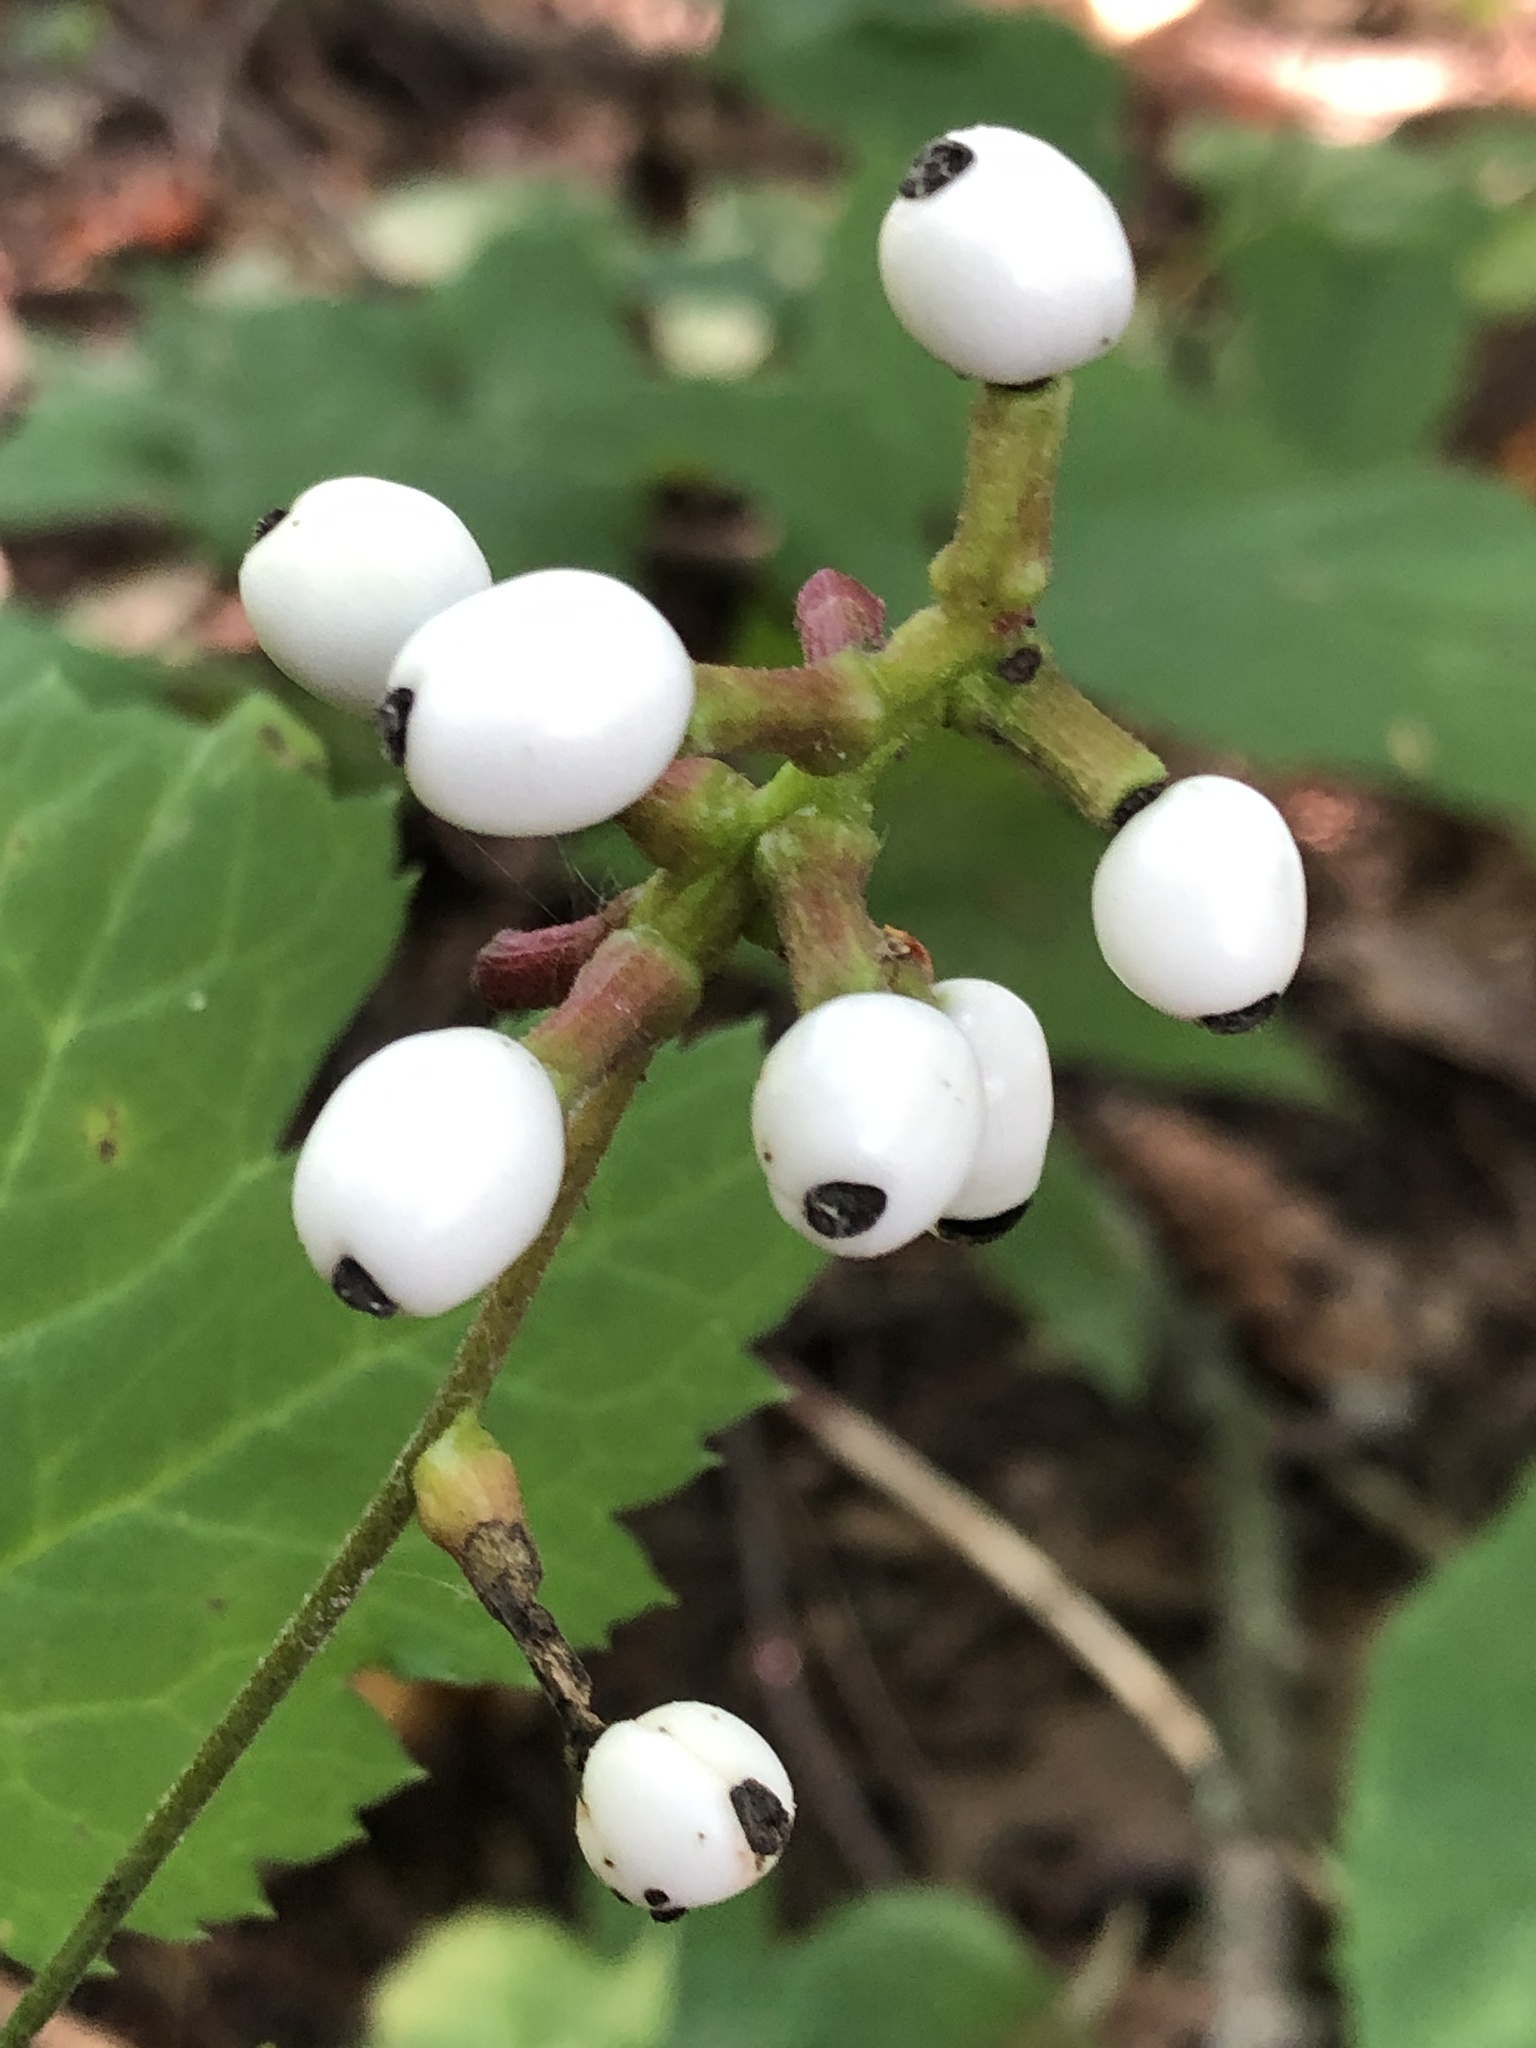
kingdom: Plantae
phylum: Tracheophyta
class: Magnoliopsida
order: Ranunculales
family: Ranunculaceae
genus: Actaea
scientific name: Actaea pachypoda
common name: Doll's-eyes
